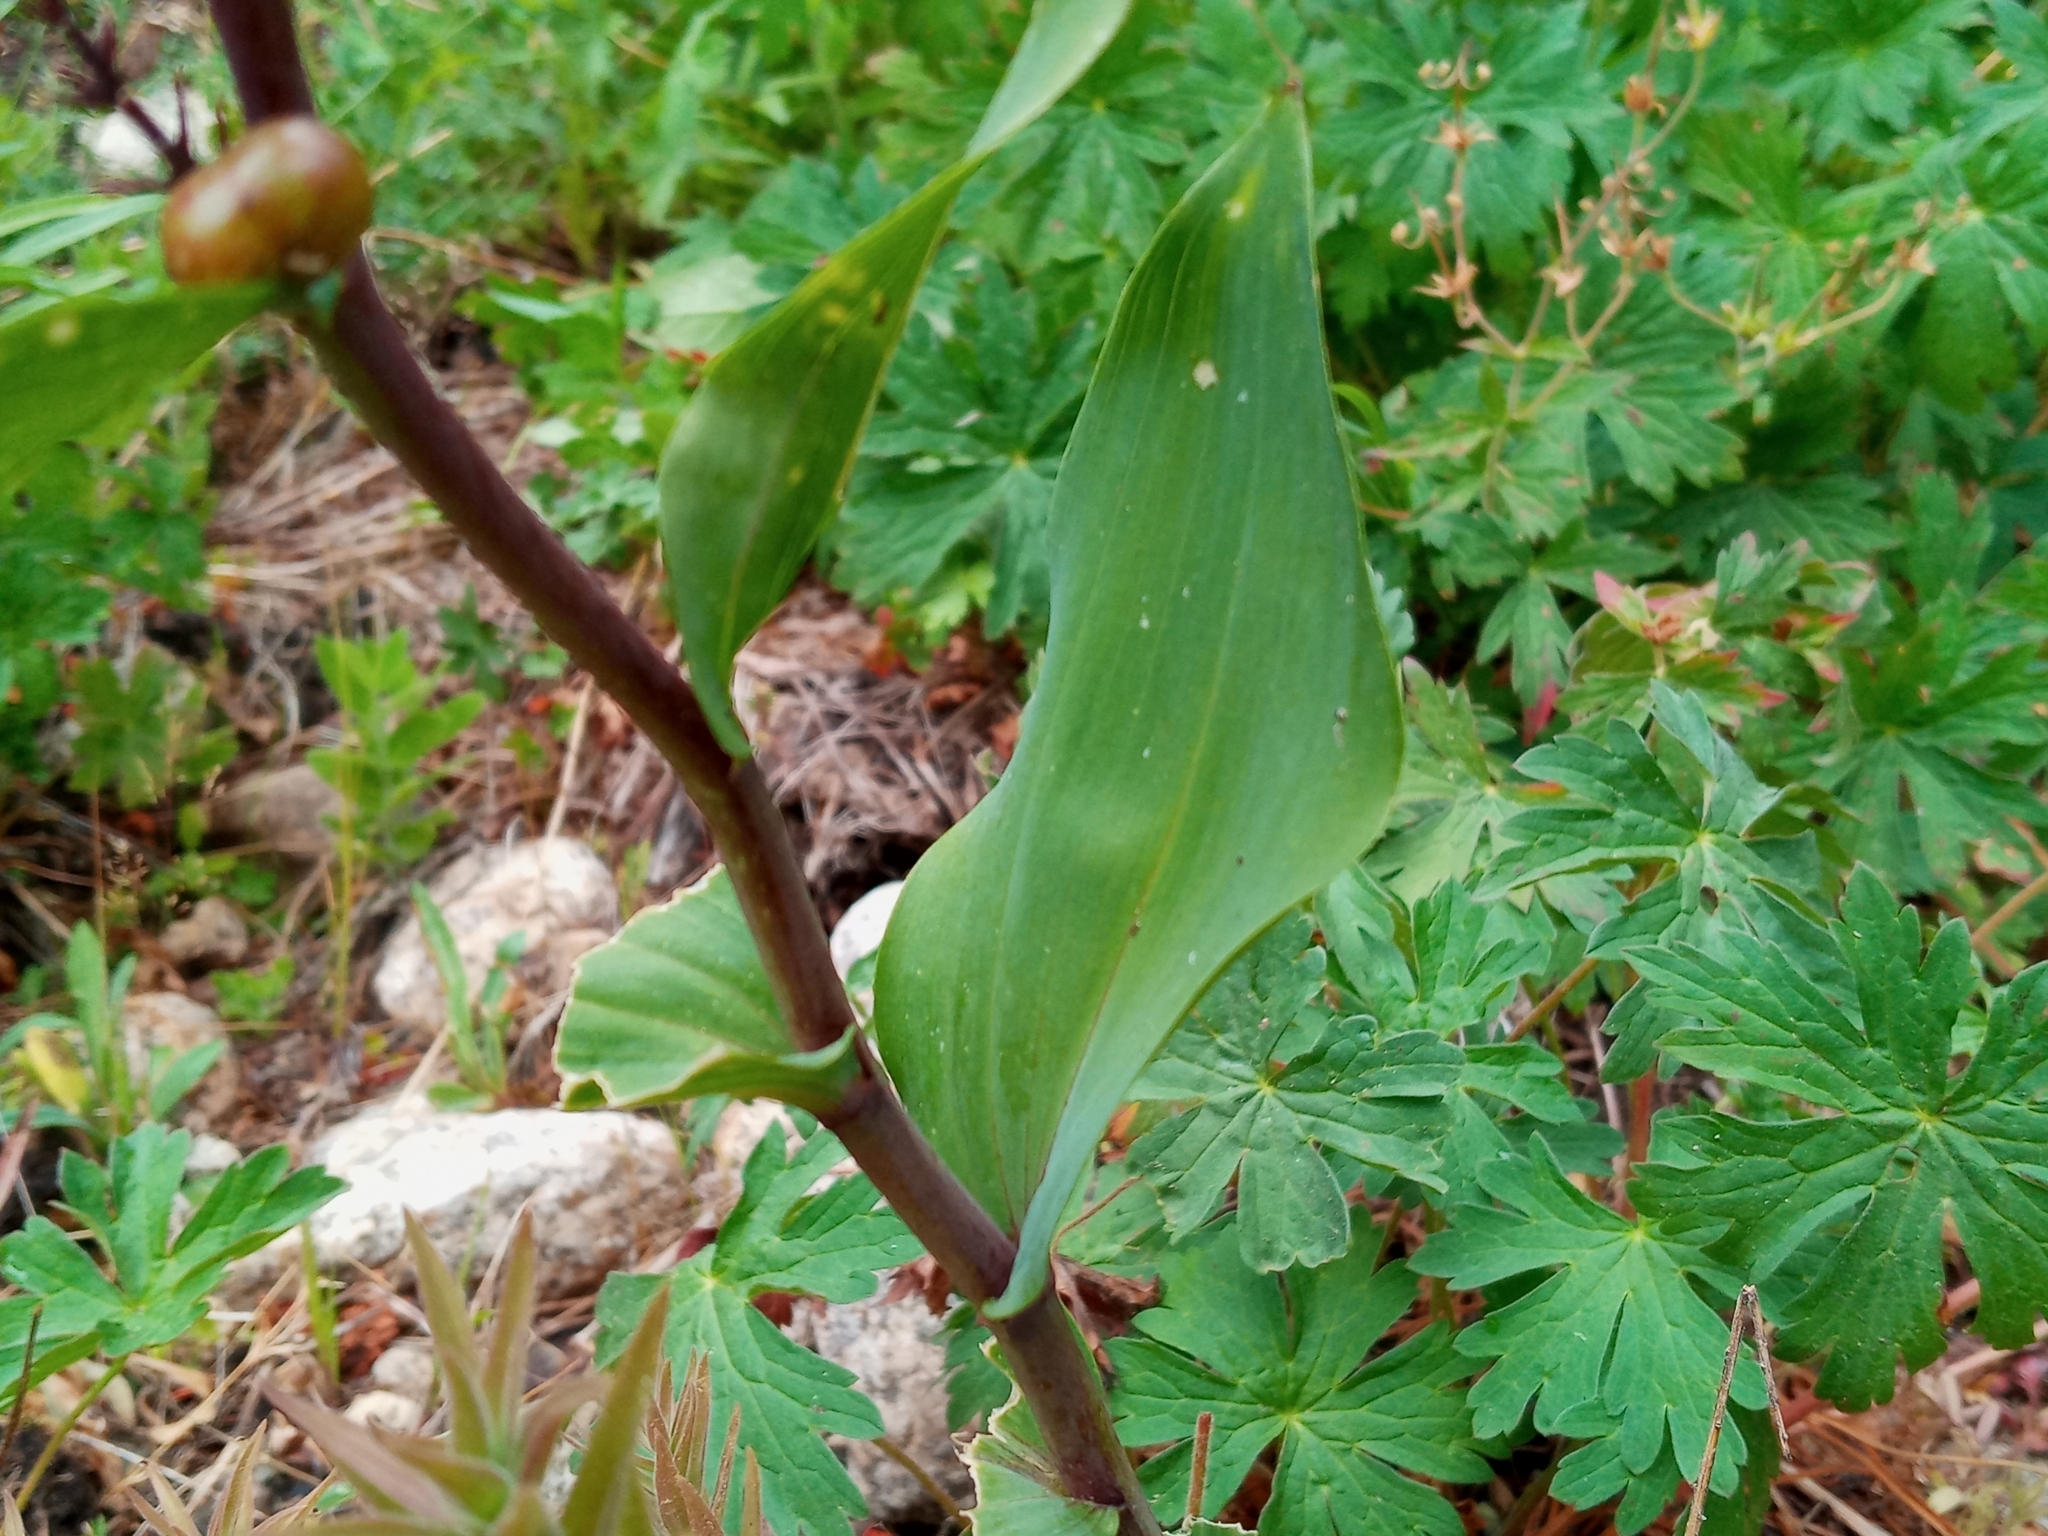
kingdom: Plantae
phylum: Tracheophyta
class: Liliopsida
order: Asparagales
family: Asparagaceae
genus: Maianthemum
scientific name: Maianthemum racemosum
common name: False spikenard
